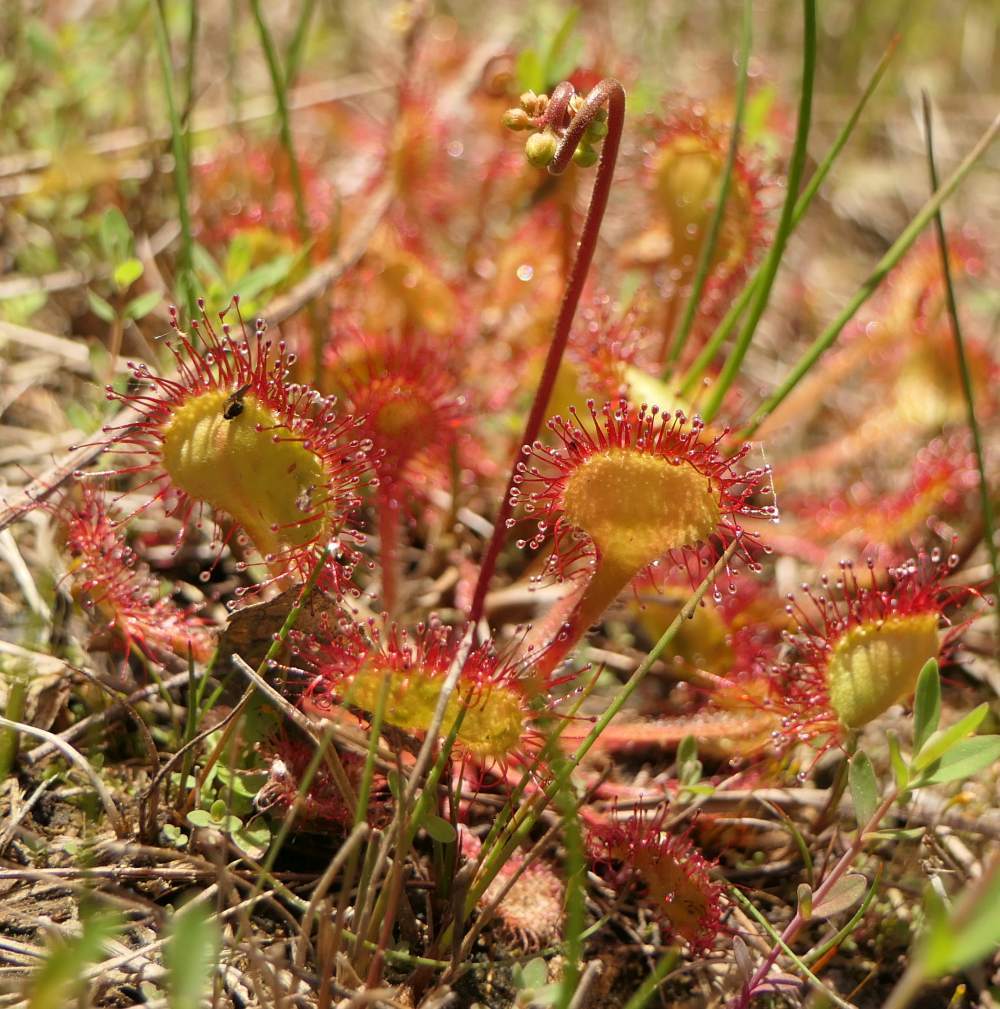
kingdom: Plantae
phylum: Tracheophyta
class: Magnoliopsida
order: Caryophyllales
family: Droseraceae
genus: Drosera
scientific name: Drosera rotundifolia
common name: Round-leaved sundew
